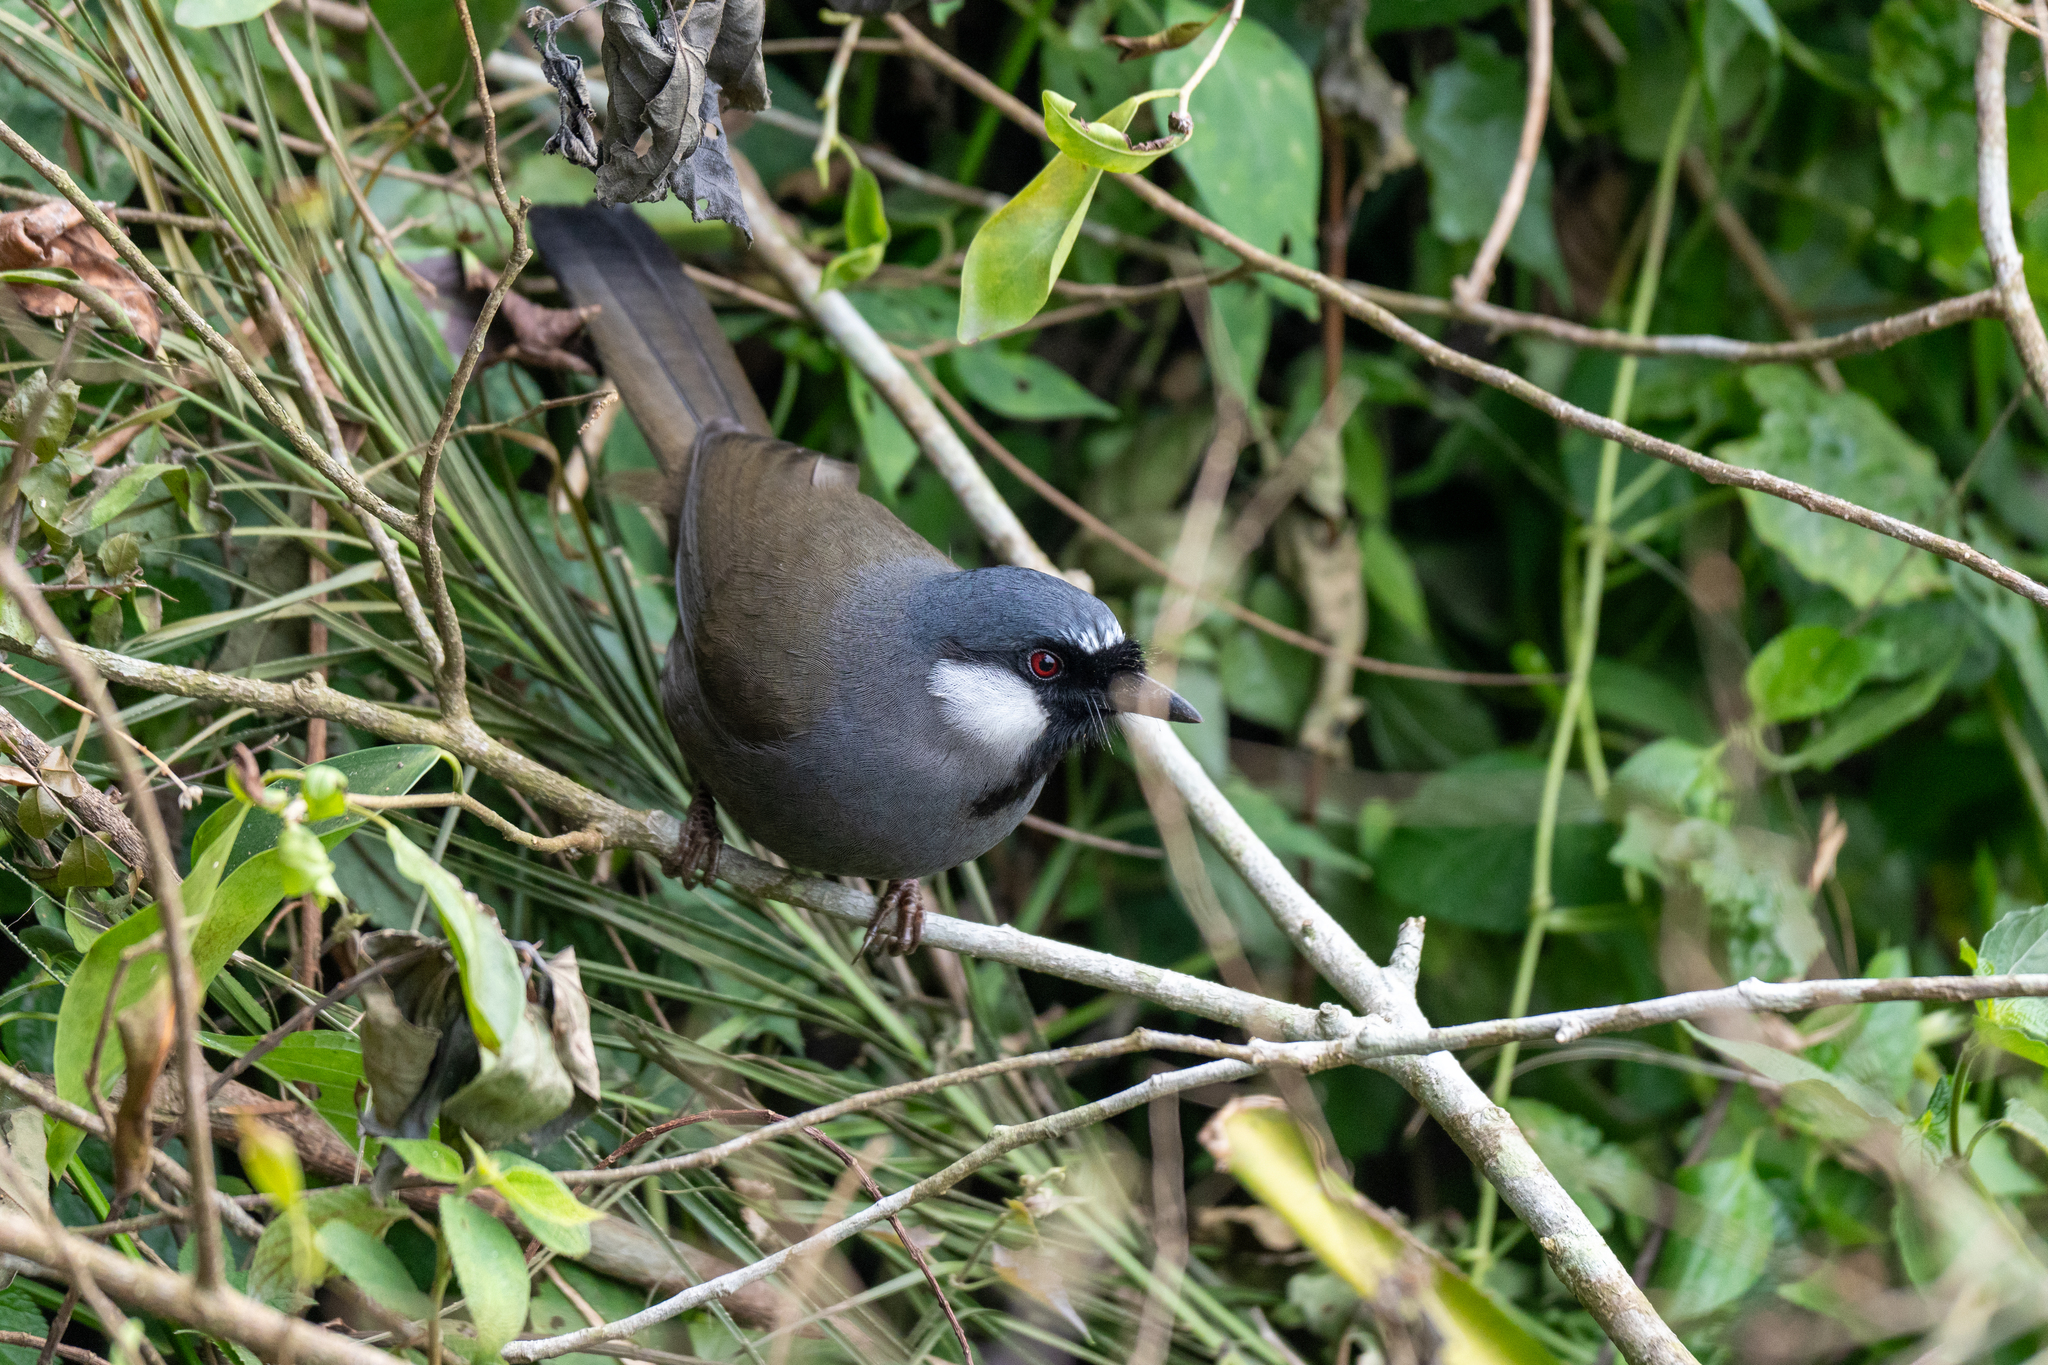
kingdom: Animalia
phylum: Chordata
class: Aves
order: Passeriformes
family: Leiothrichidae
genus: Garrulax
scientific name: Garrulax chinensis
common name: Black-throated laughingthrush
